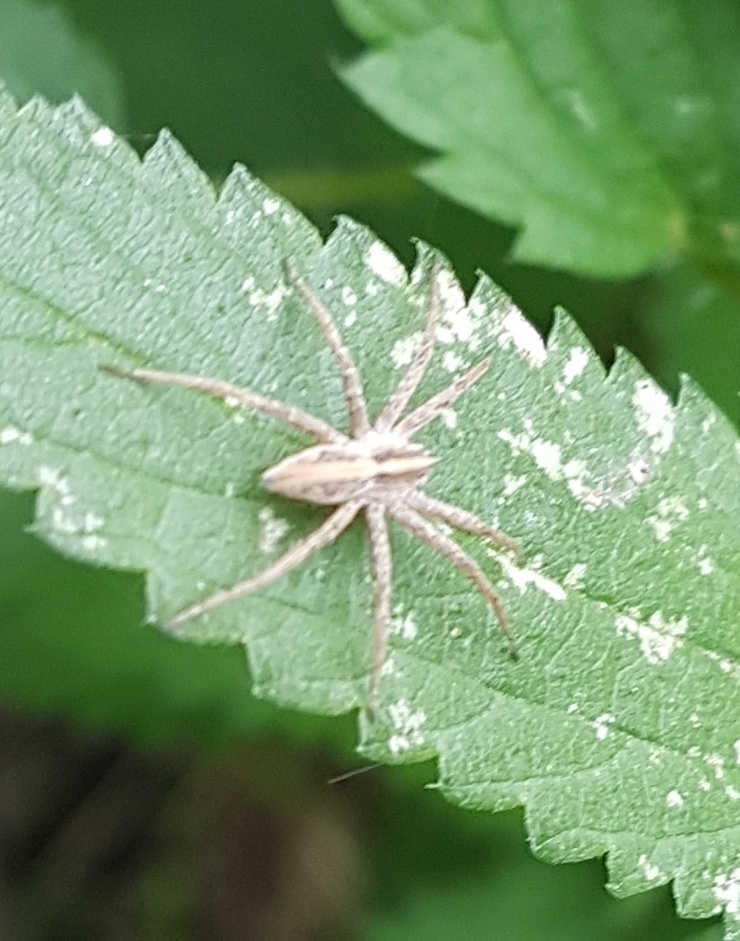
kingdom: Animalia
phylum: Arthropoda
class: Arachnida
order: Araneae
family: Pisauridae
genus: Pisaura
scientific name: Pisaura mirabilis
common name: Tent spider
